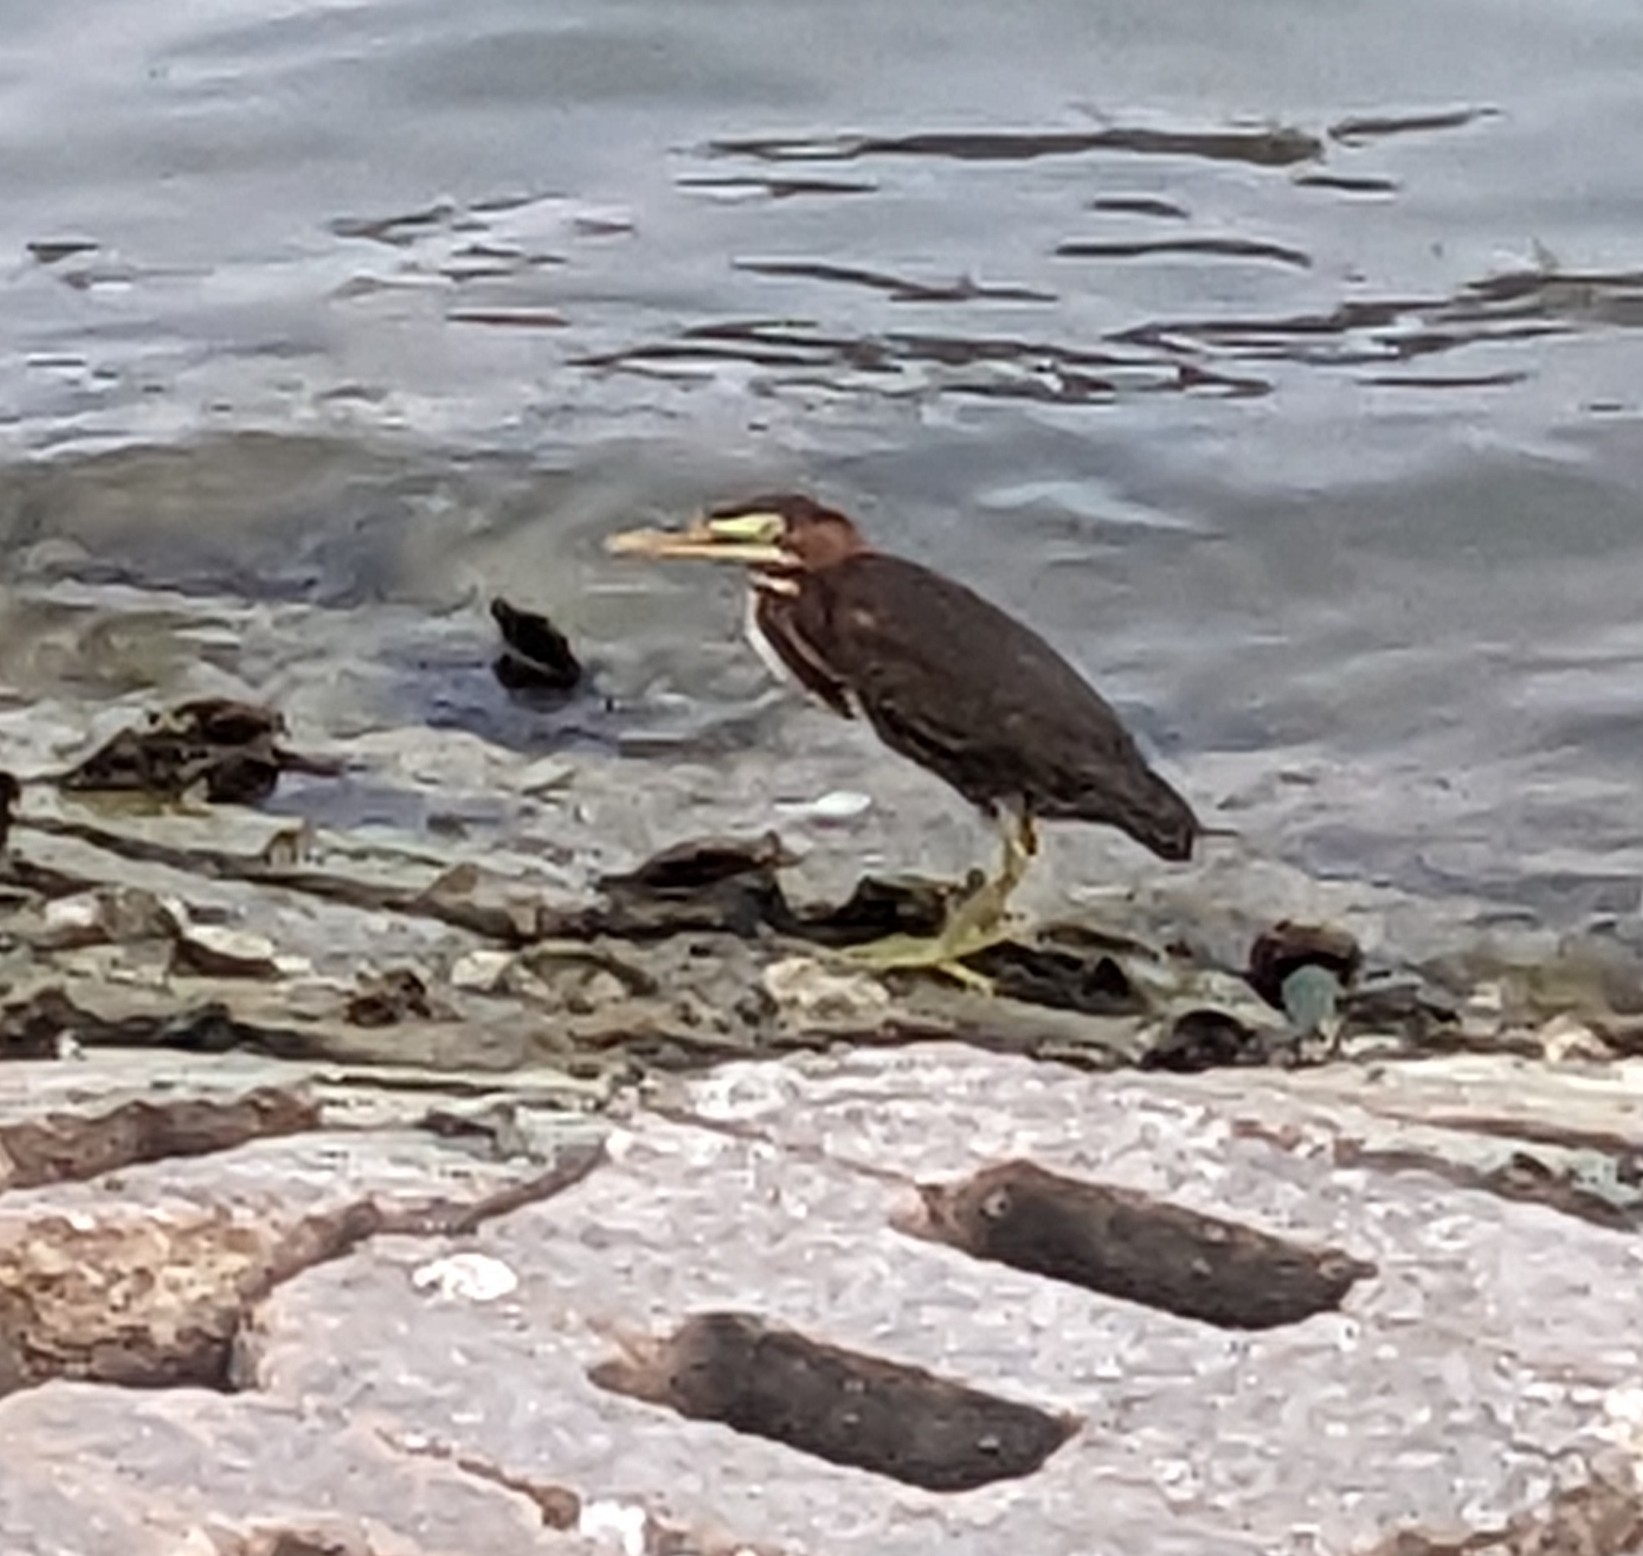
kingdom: Animalia
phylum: Chordata
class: Aves
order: Pelecaniformes
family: Ardeidae
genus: Butorides
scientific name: Butorides virescens
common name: Green heron
